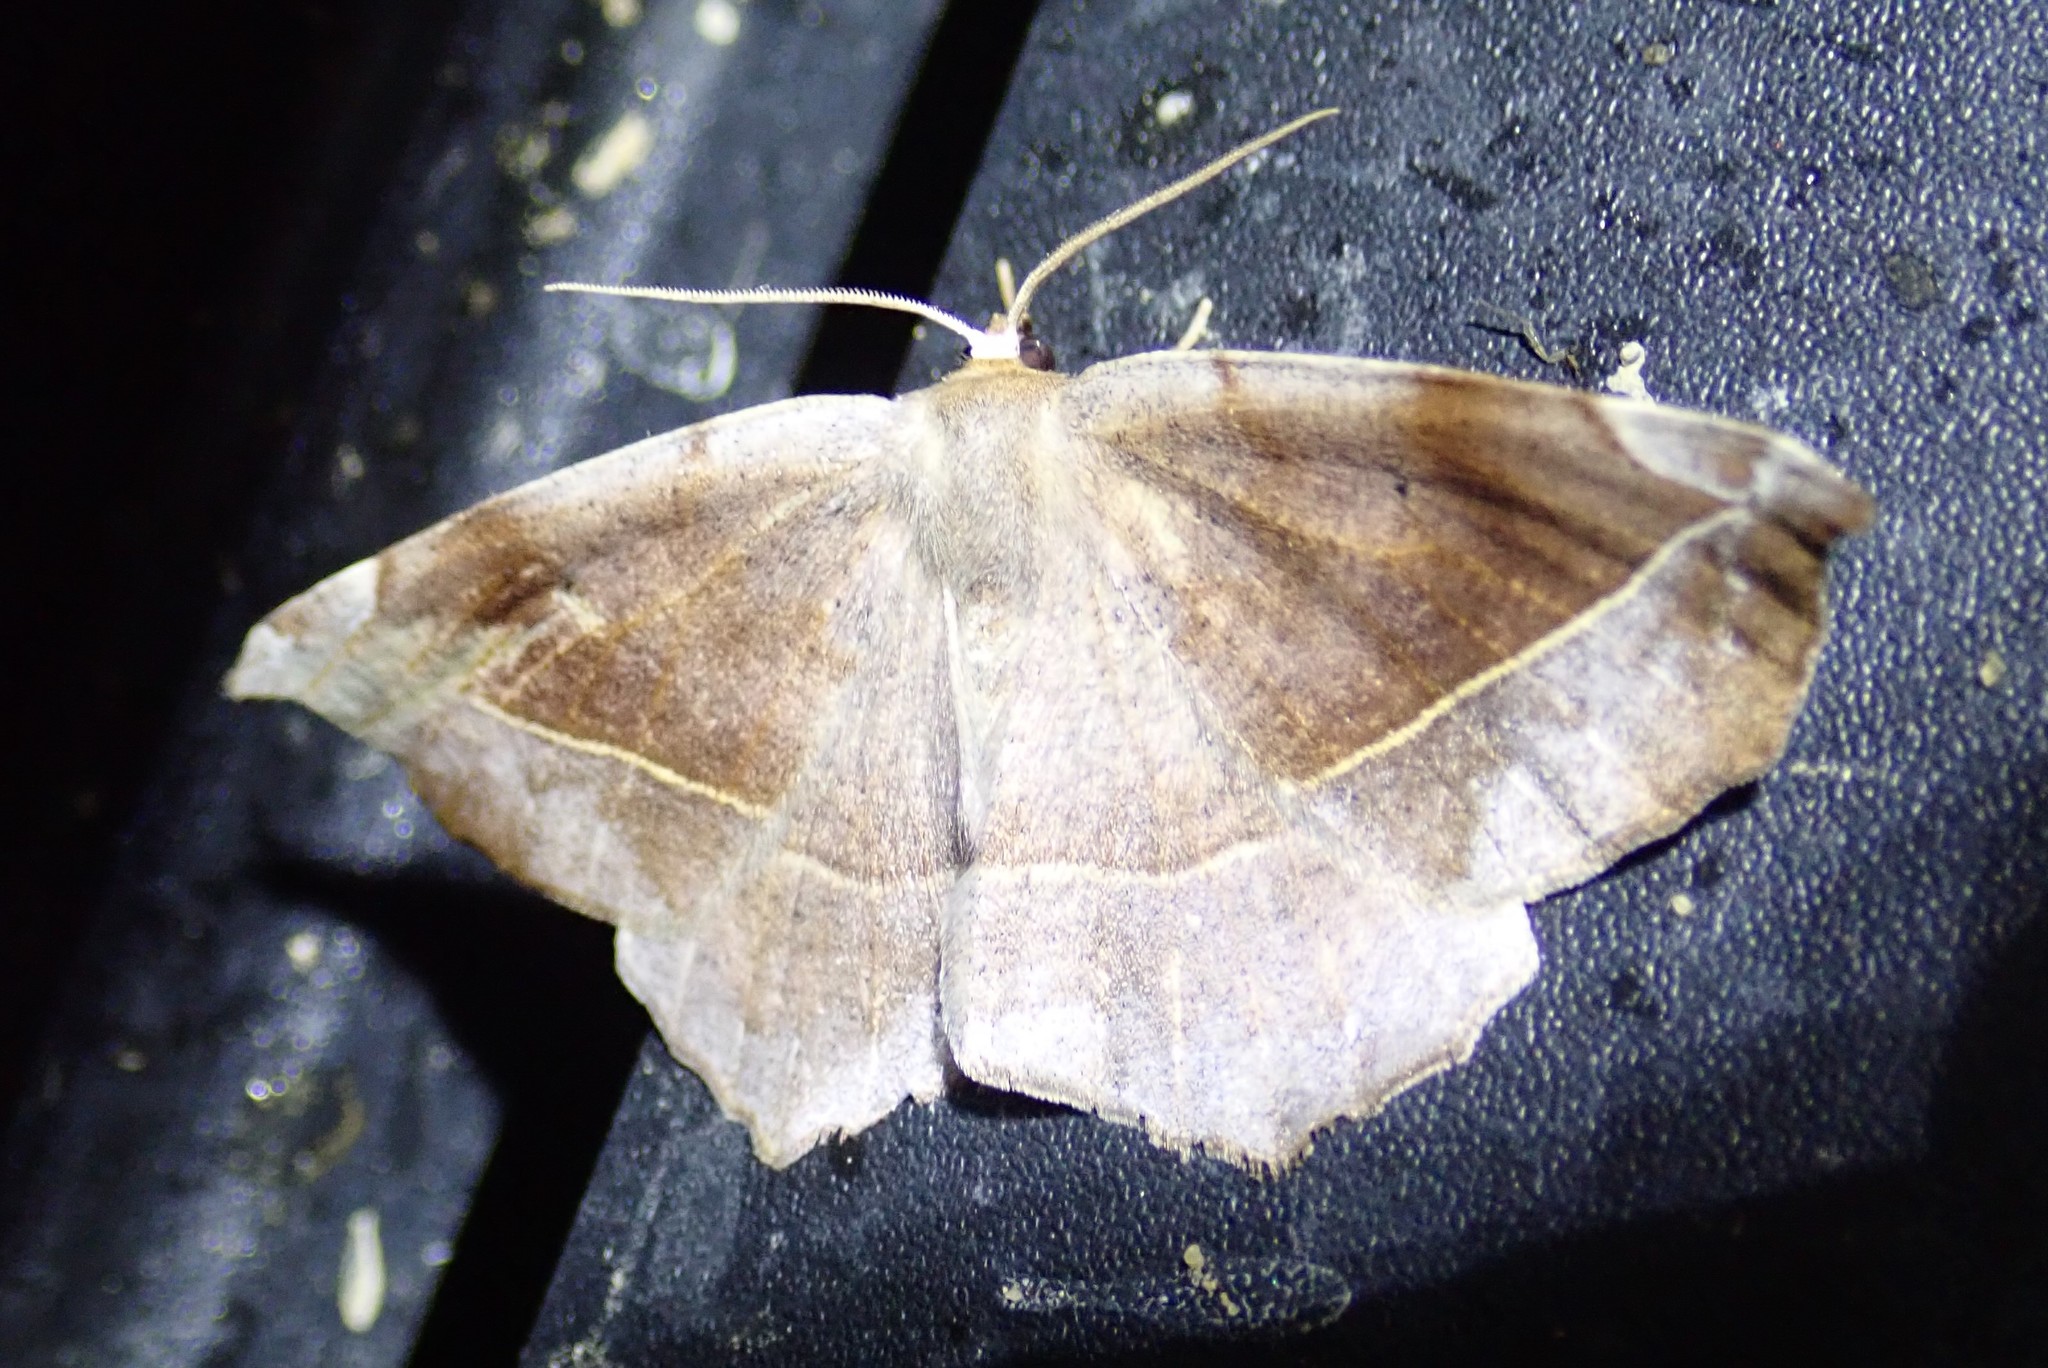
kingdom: Animalia
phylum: Arthropoda
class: Insecta
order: Lepidoptera
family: Geometridae
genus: Eutrapela
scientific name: Eutrapela clemataria
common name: Curved-toothed geometer
